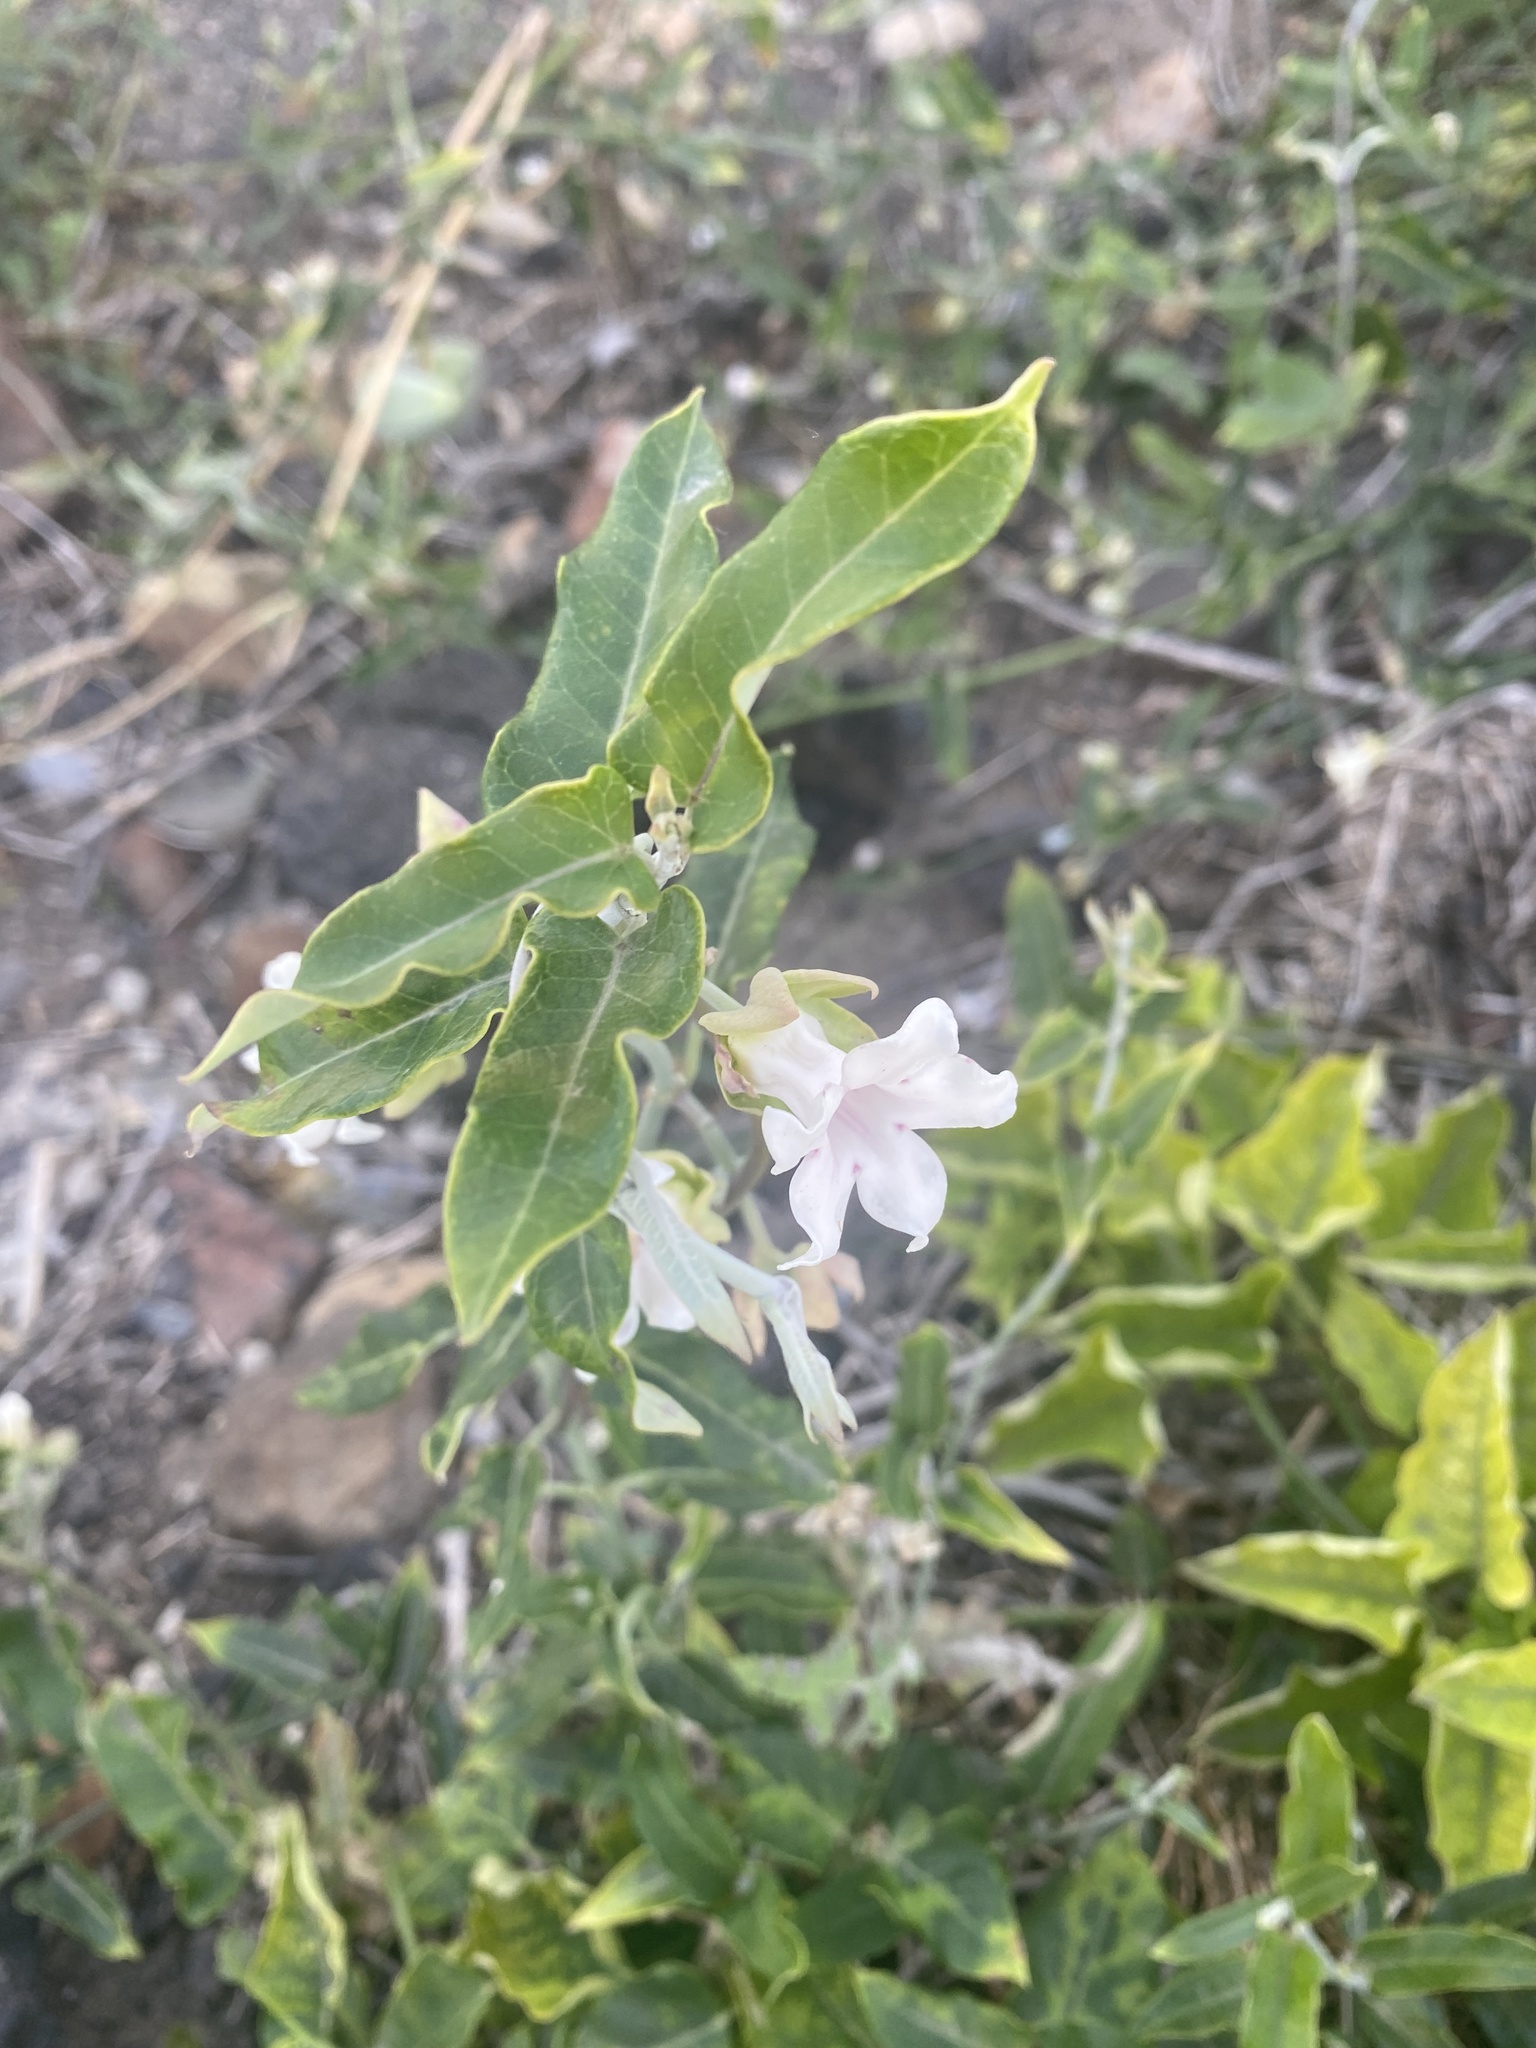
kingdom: Plantae
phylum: Tracheophyta
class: Magnoliopsida
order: Gentianales
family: Apocynaceae
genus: Araujia
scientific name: Araujia sericifera
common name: White bladderflower
